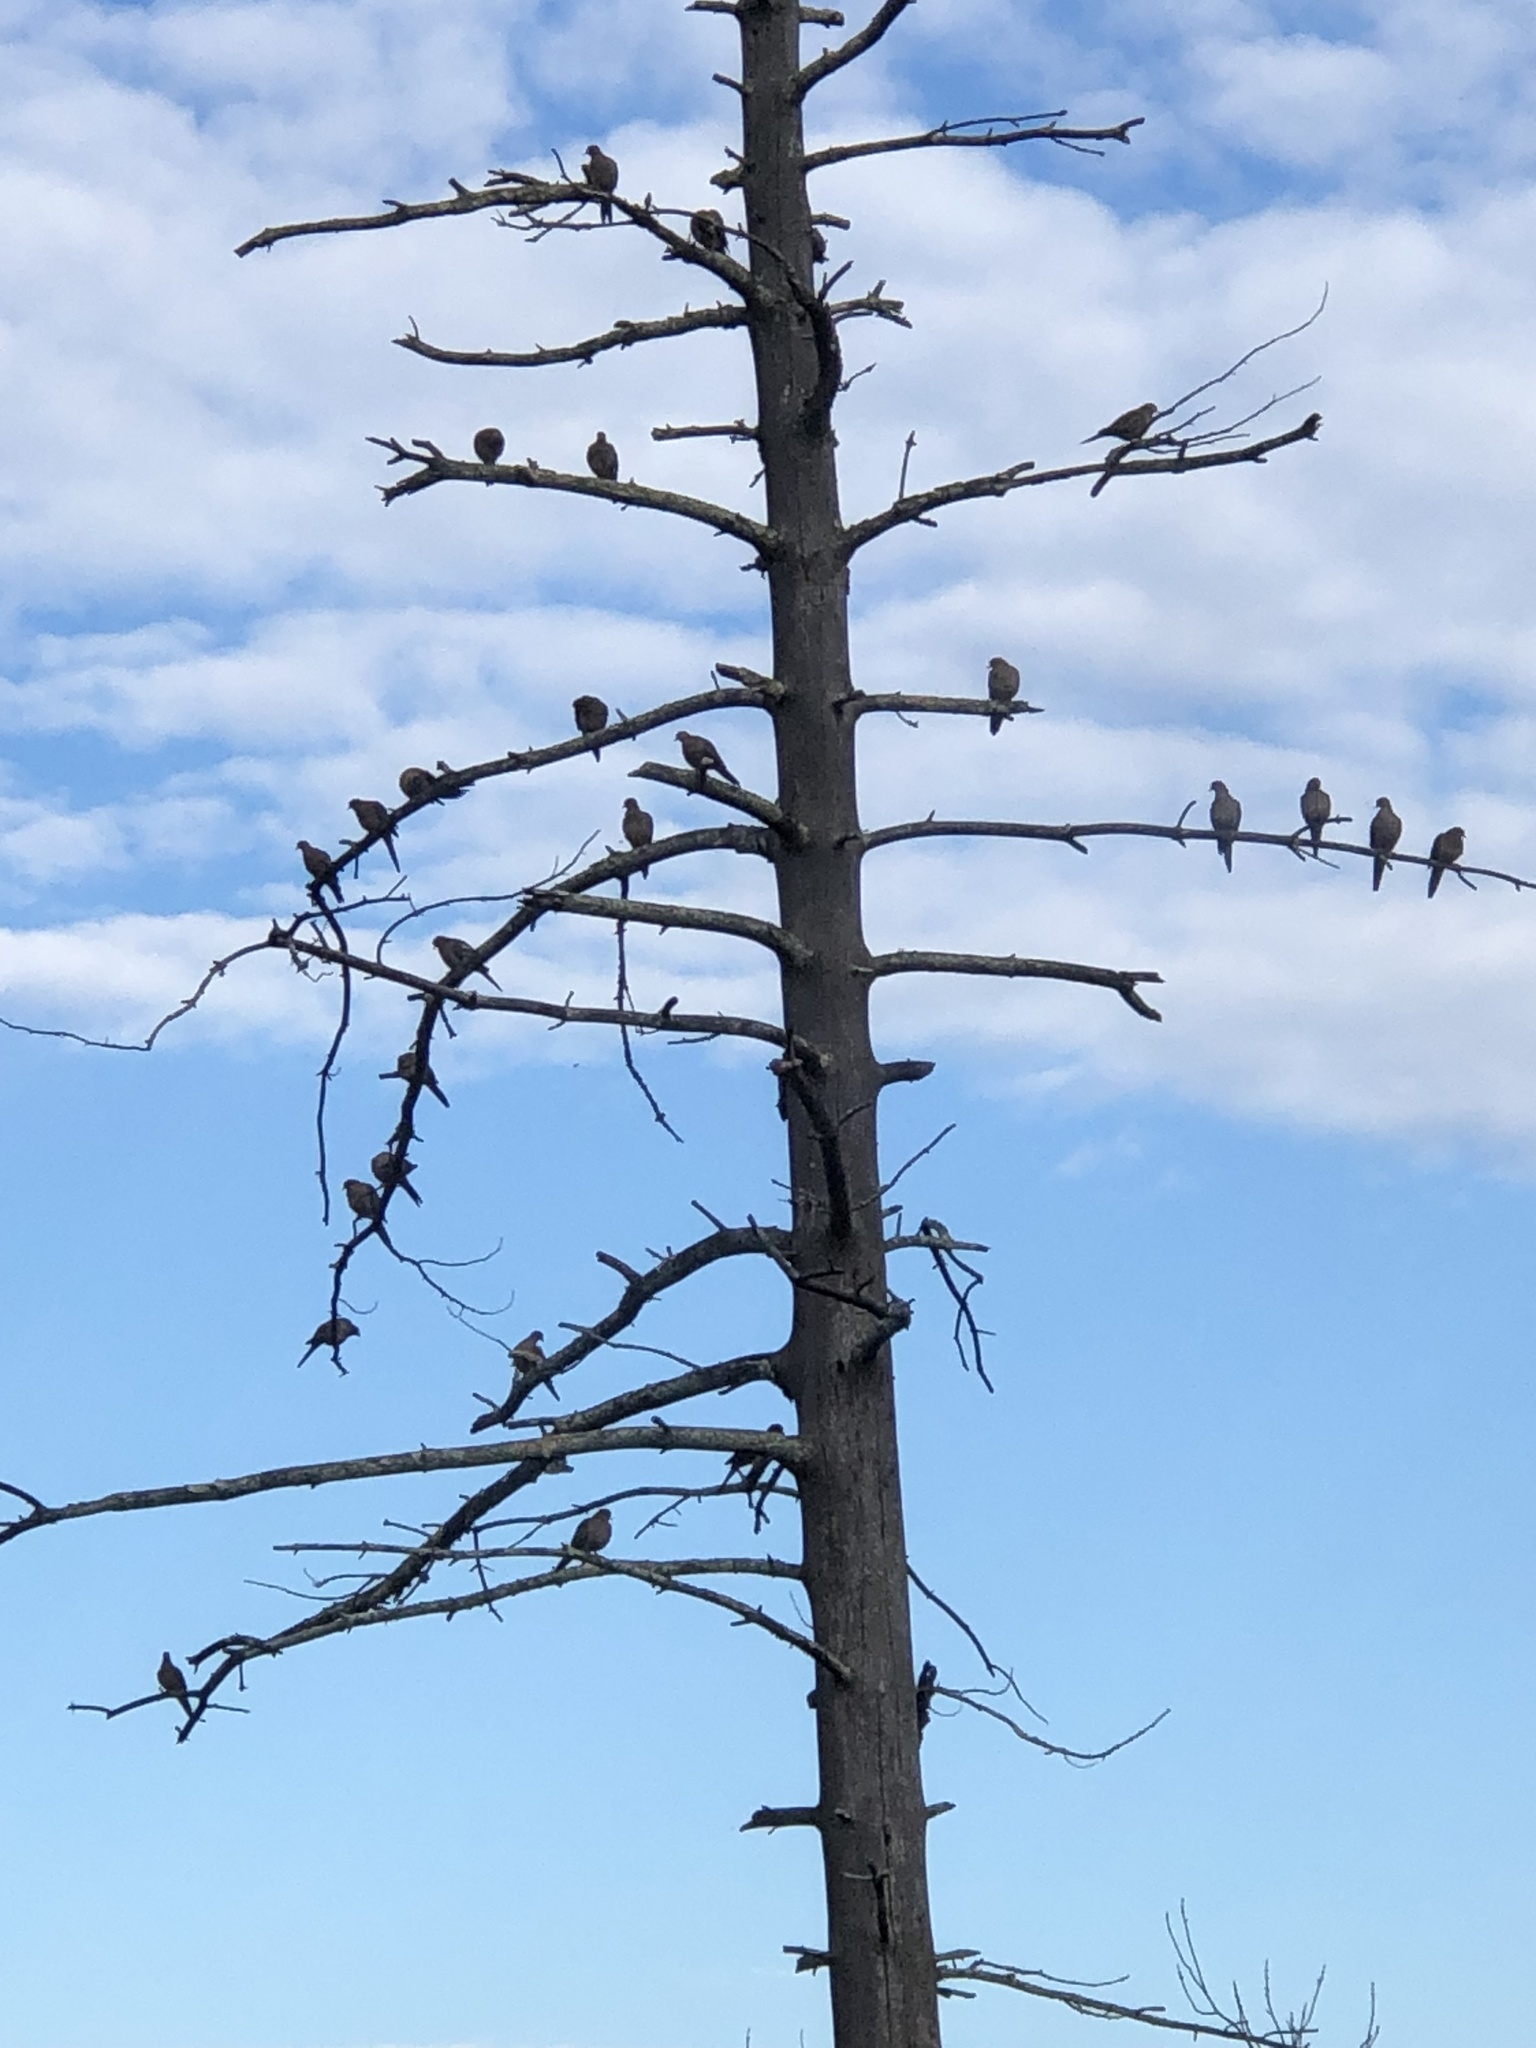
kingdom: Animalia
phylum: Chordata
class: Aves
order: Columbiformes
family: Columbidae
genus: Zenaida
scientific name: Zenaida macroura
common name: Mourning dove
